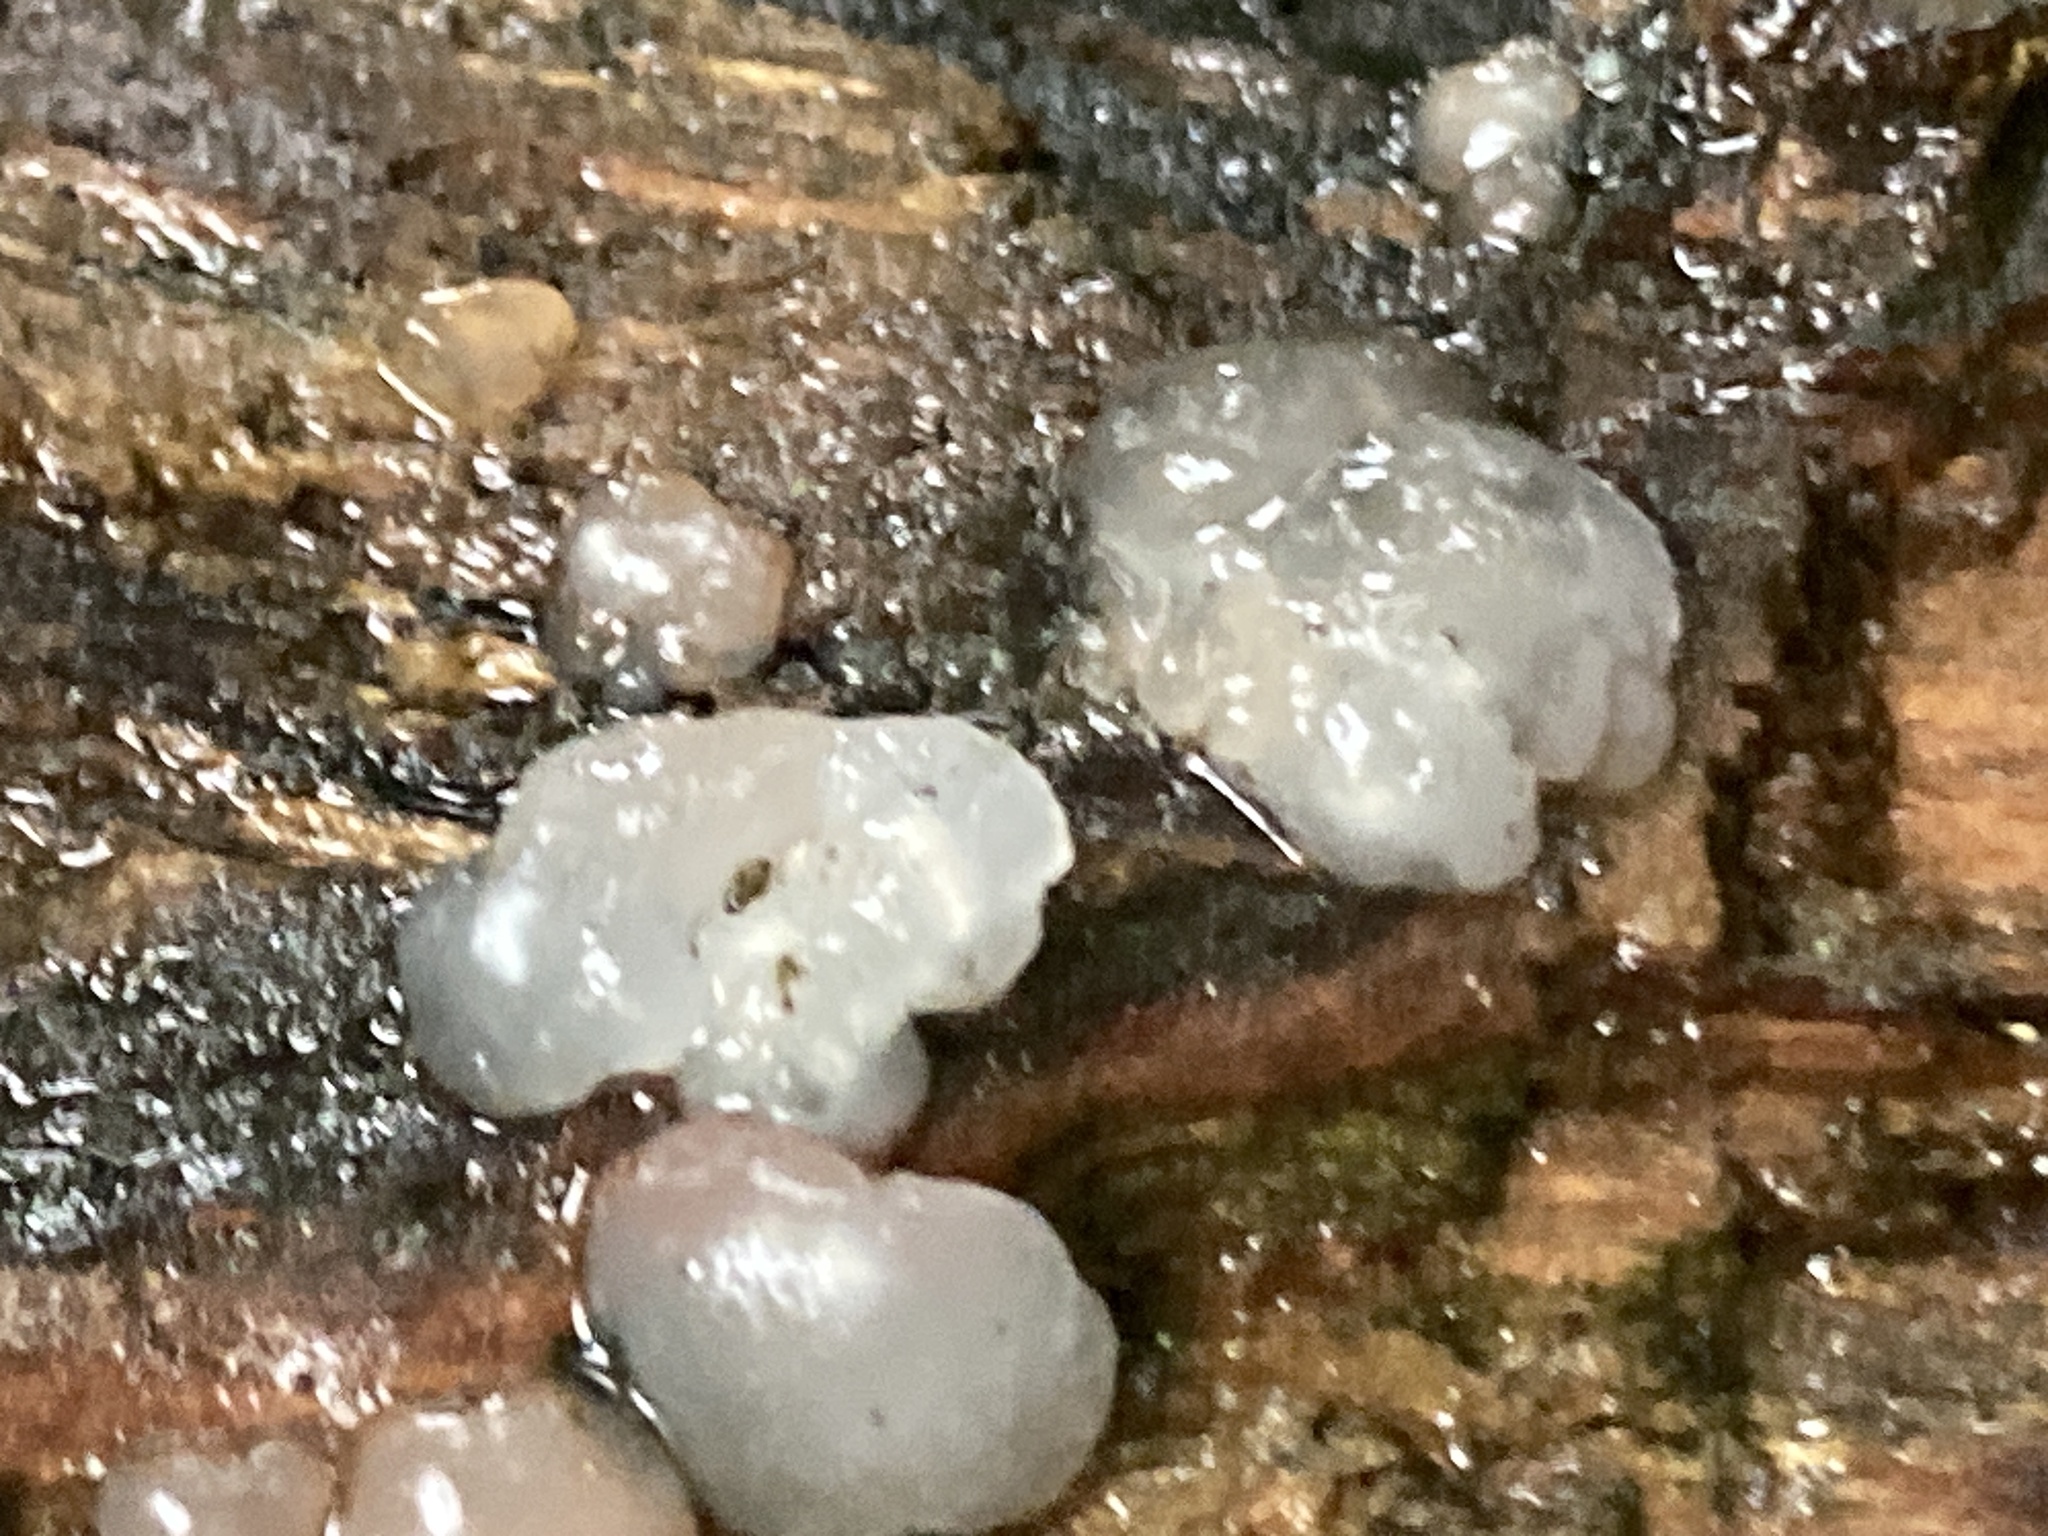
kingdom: Fungi
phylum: Basidiomycota
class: Agaricomycetes
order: Auriculariales
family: Hyaloriaceae
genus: Myxarium
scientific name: Myxarium nucleatum
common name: Crystal brain fungus
